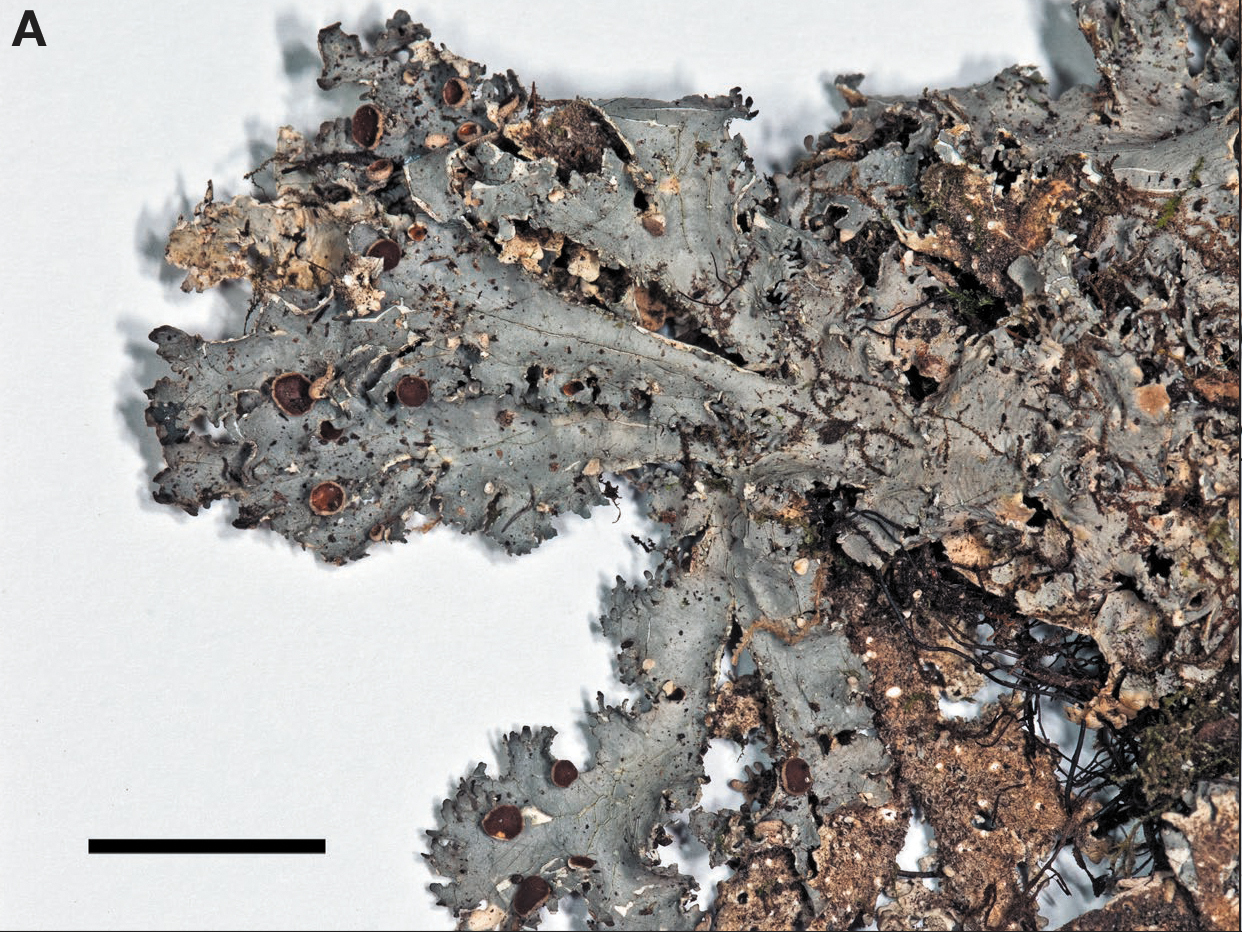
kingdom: Fungi
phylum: Ascomycota
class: Lecanoromycetes
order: Peltigerales
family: Lobariaceae
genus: Pseudocyphellaria
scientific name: Pseudocyphellaria insculpta
